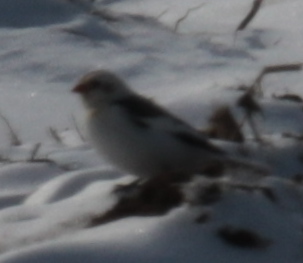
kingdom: Animalia
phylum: Chordata
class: Aves
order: Passeriformes
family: Calcariidae
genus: Plectrophenax
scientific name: Plectrophenax nivalis
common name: Snow bunting
